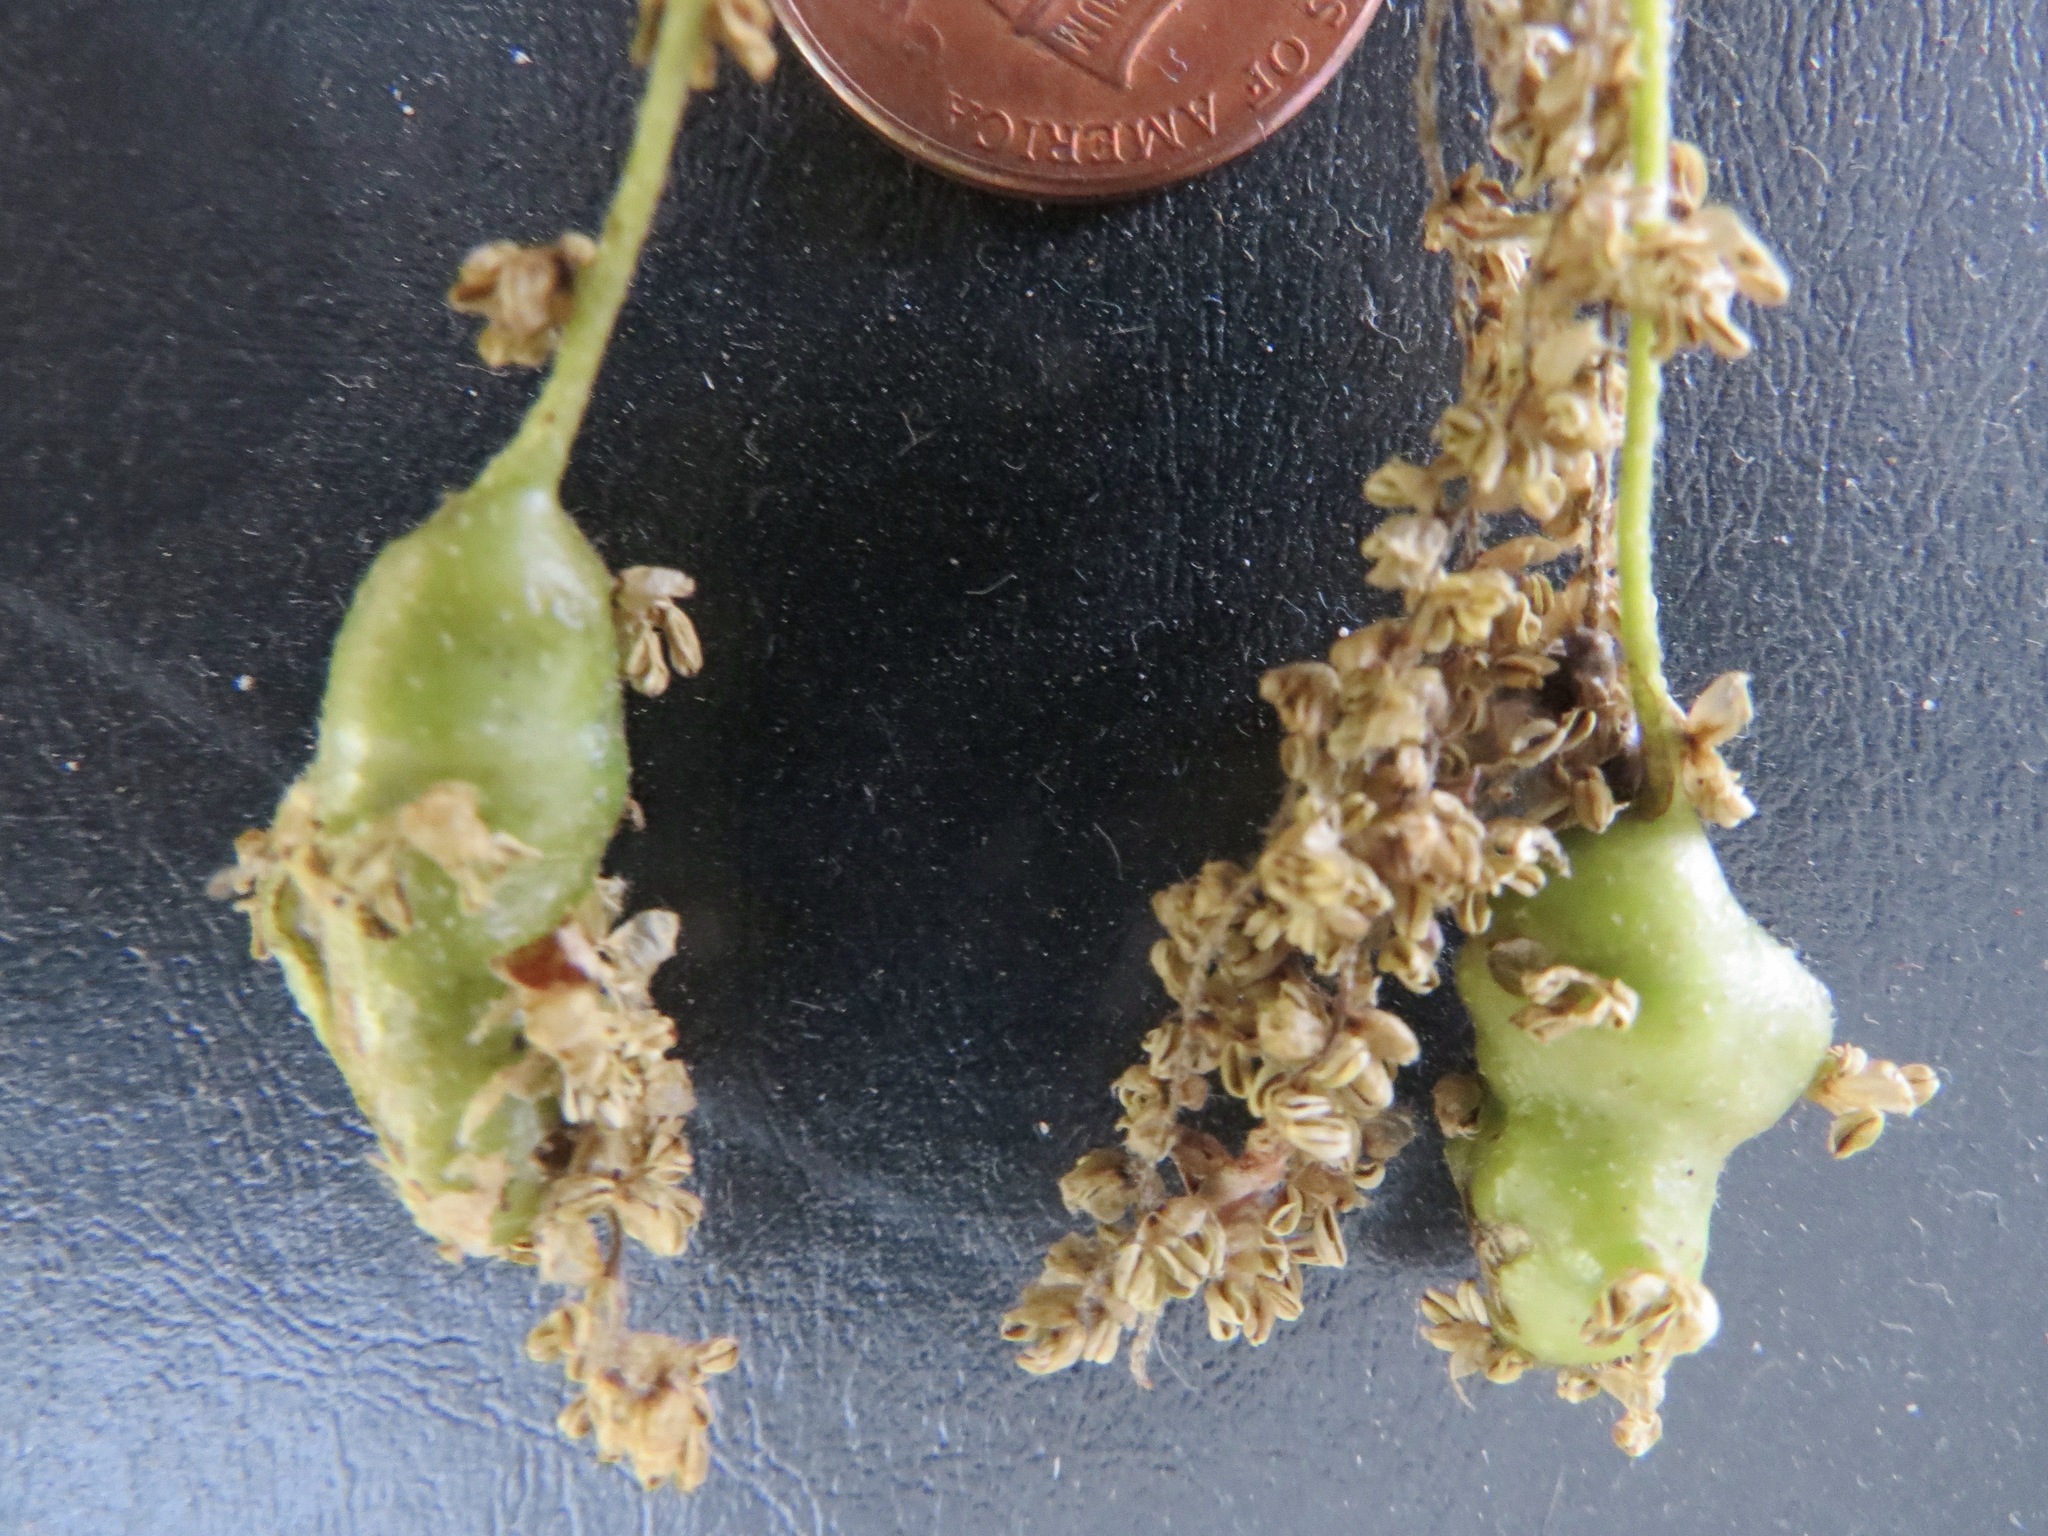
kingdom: Animalia
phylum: Arthropoda
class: Insecta
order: Hymenoptera
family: Cynipidae
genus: Callirhytis
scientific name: Callirhytis
